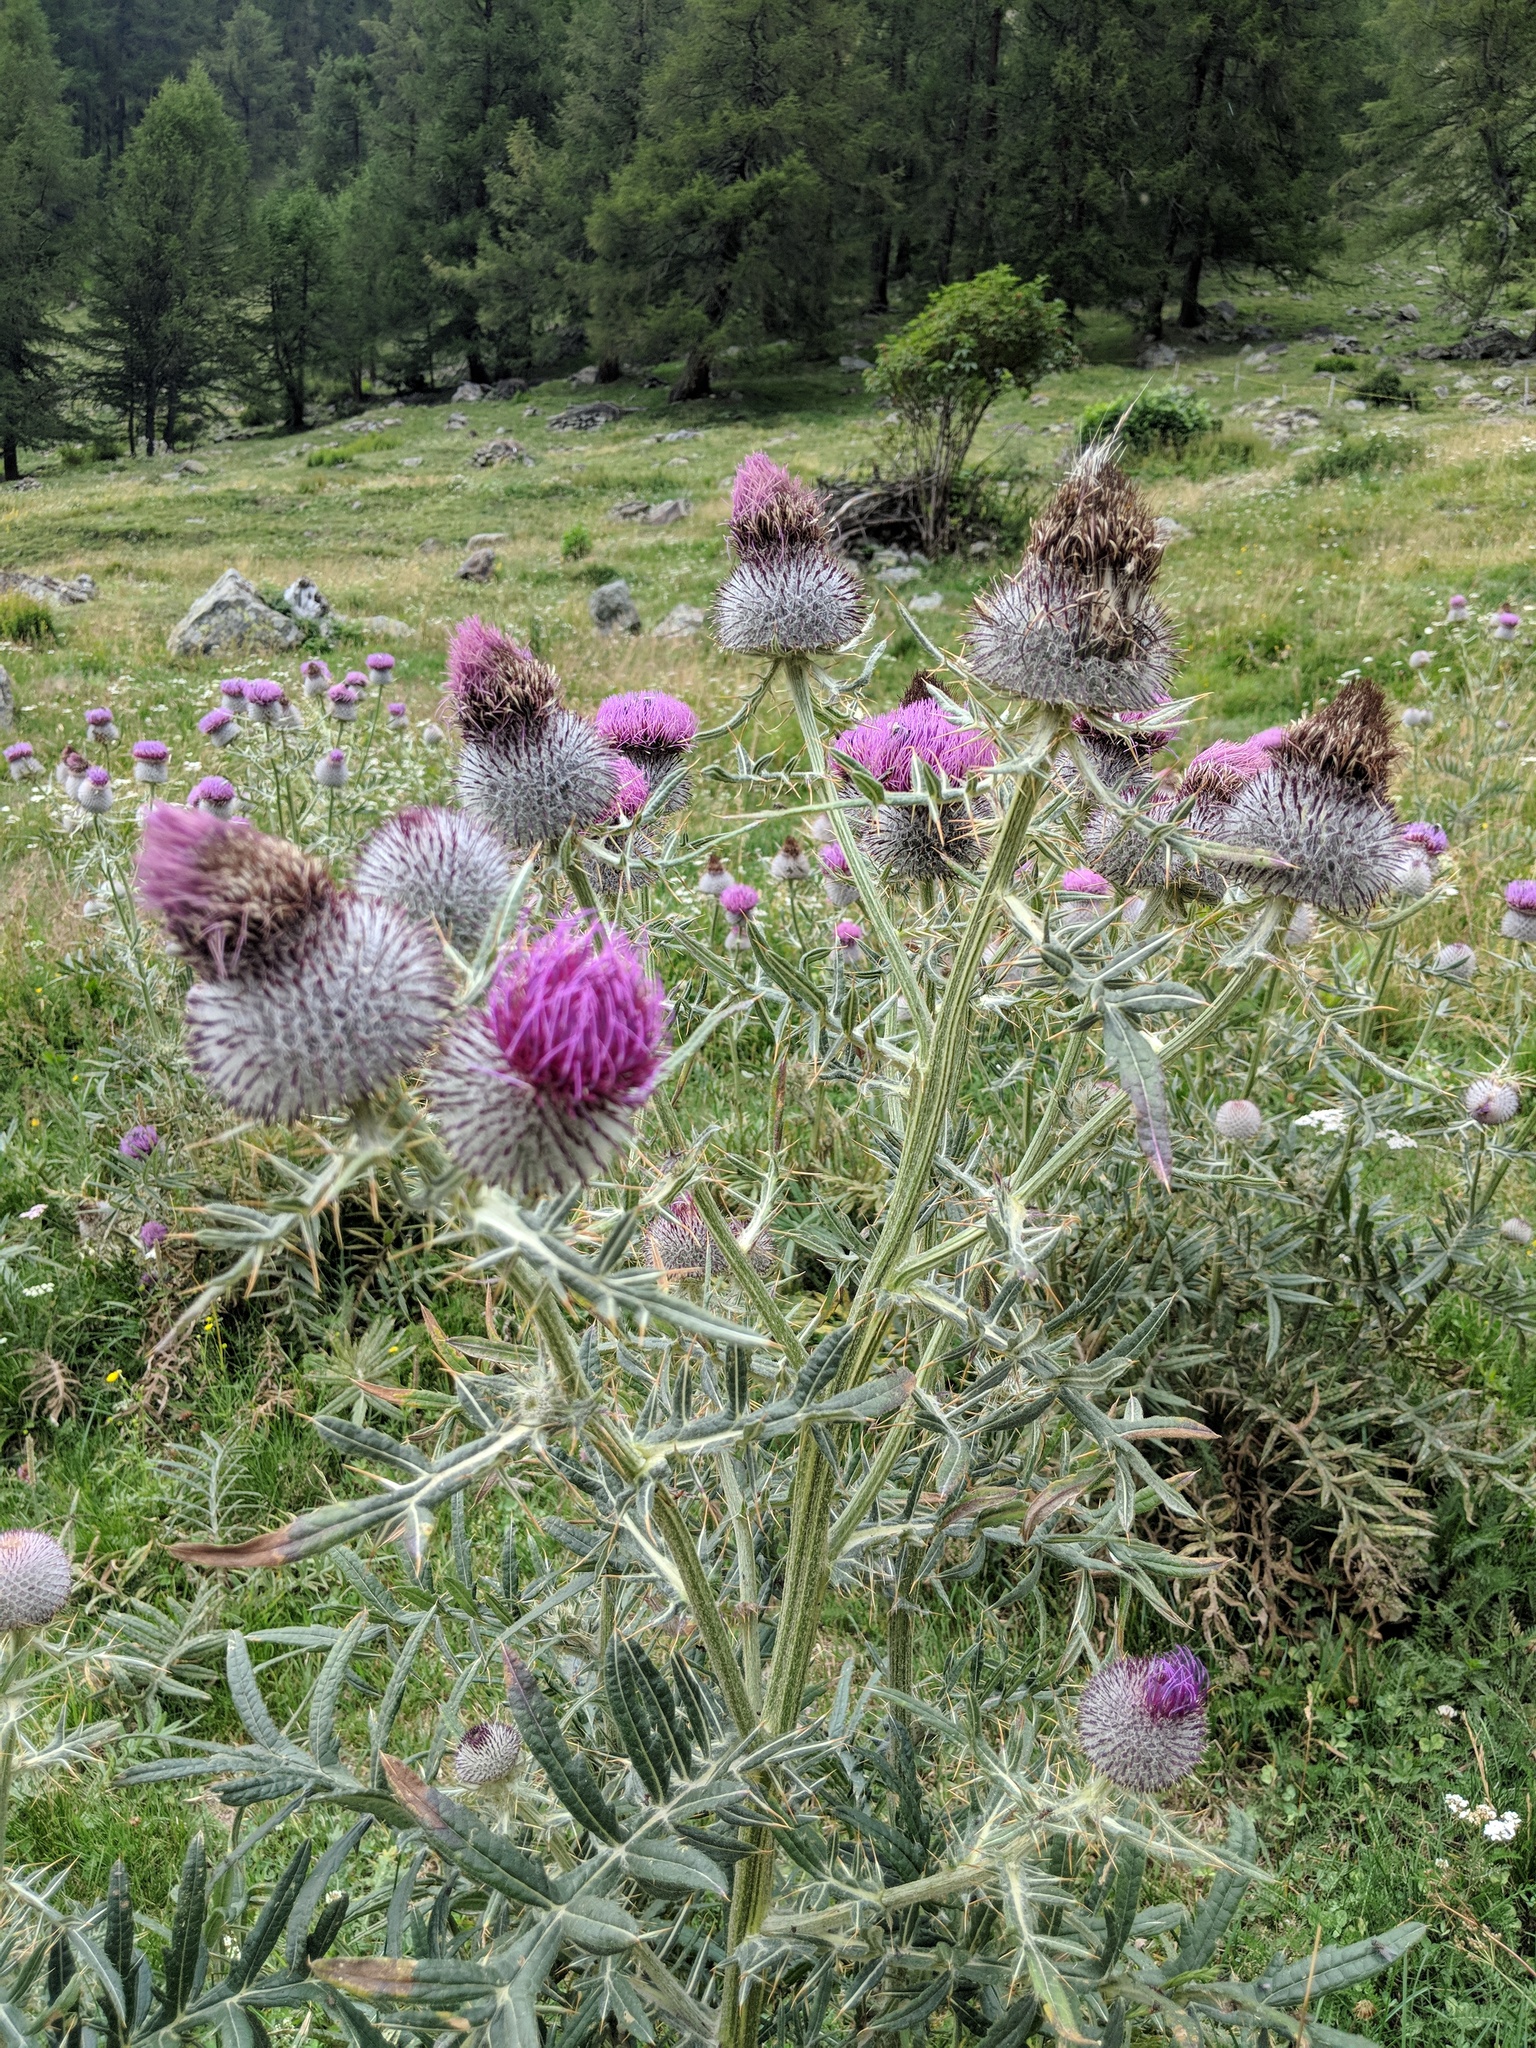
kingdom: Plantae
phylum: Tracheophyta
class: Magnoliopsida
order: Asterales
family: Asteraceae
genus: Lophiolepis
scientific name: Lophiolepis eriophora
